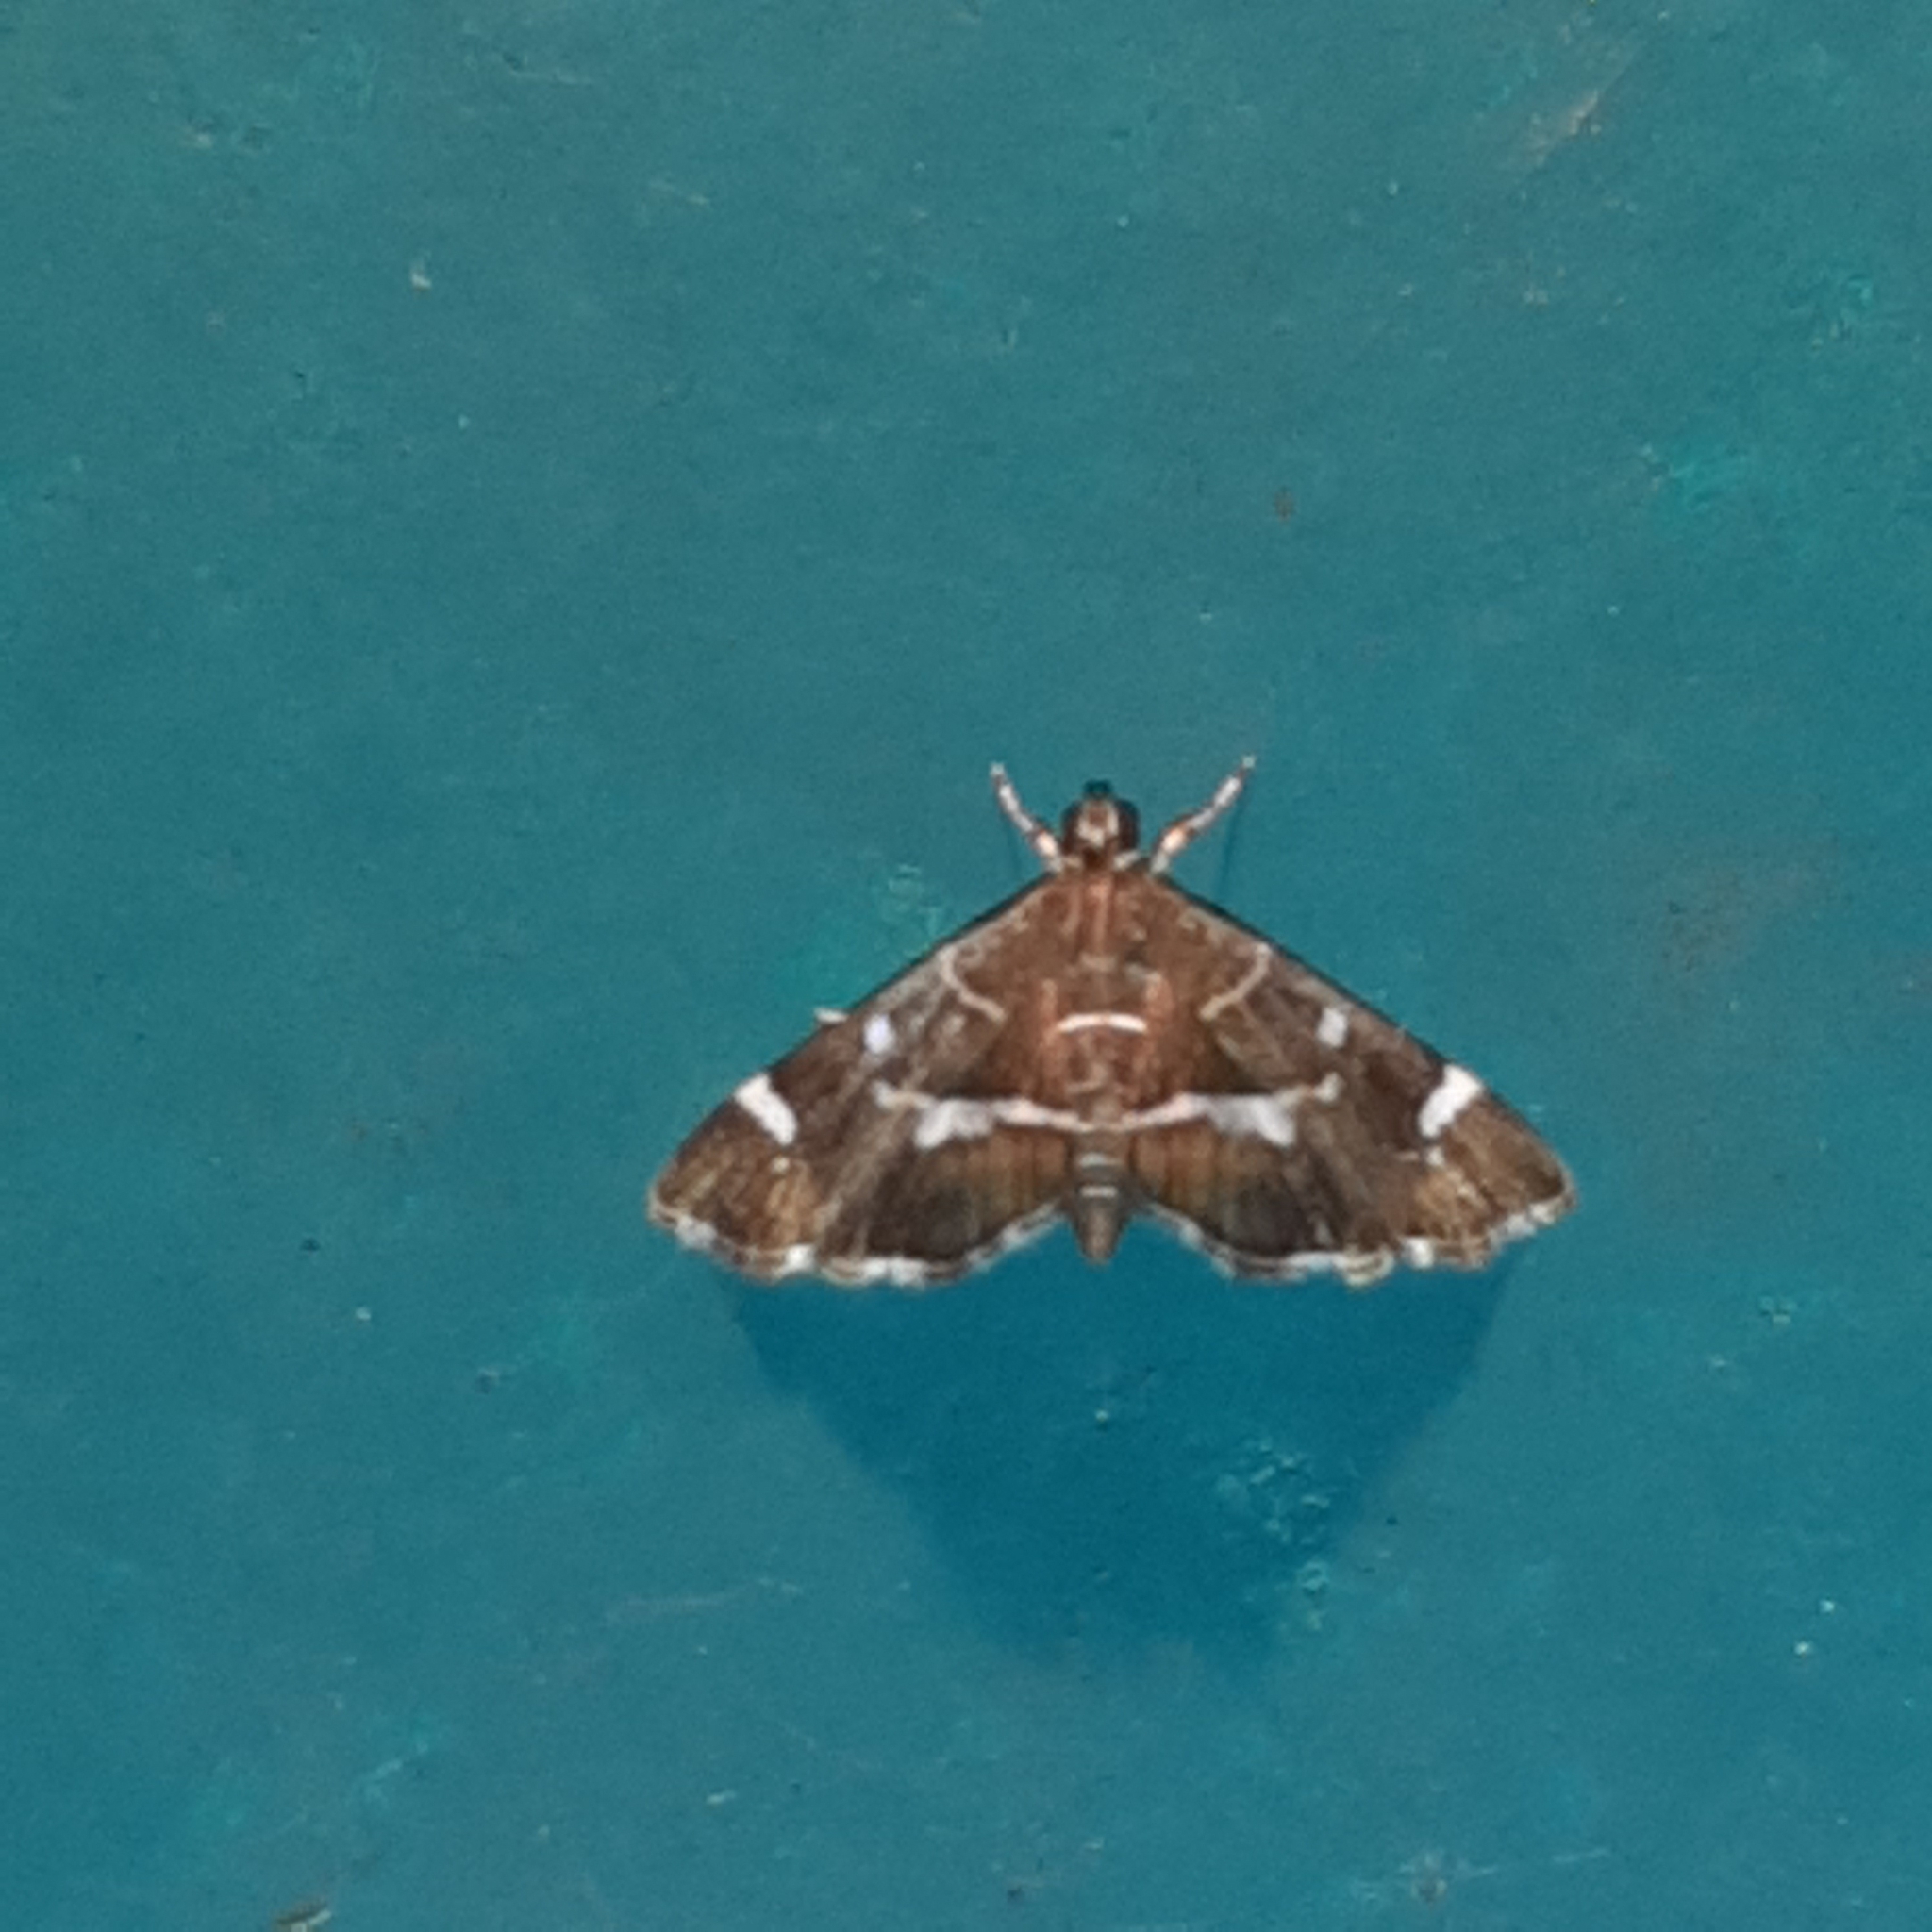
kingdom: Animalia
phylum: Arthropoda
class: Insecta
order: Lepidoptera
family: Crambidae
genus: Hymenia
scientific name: Hymenia perspectalis
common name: Spotted beet webworm
